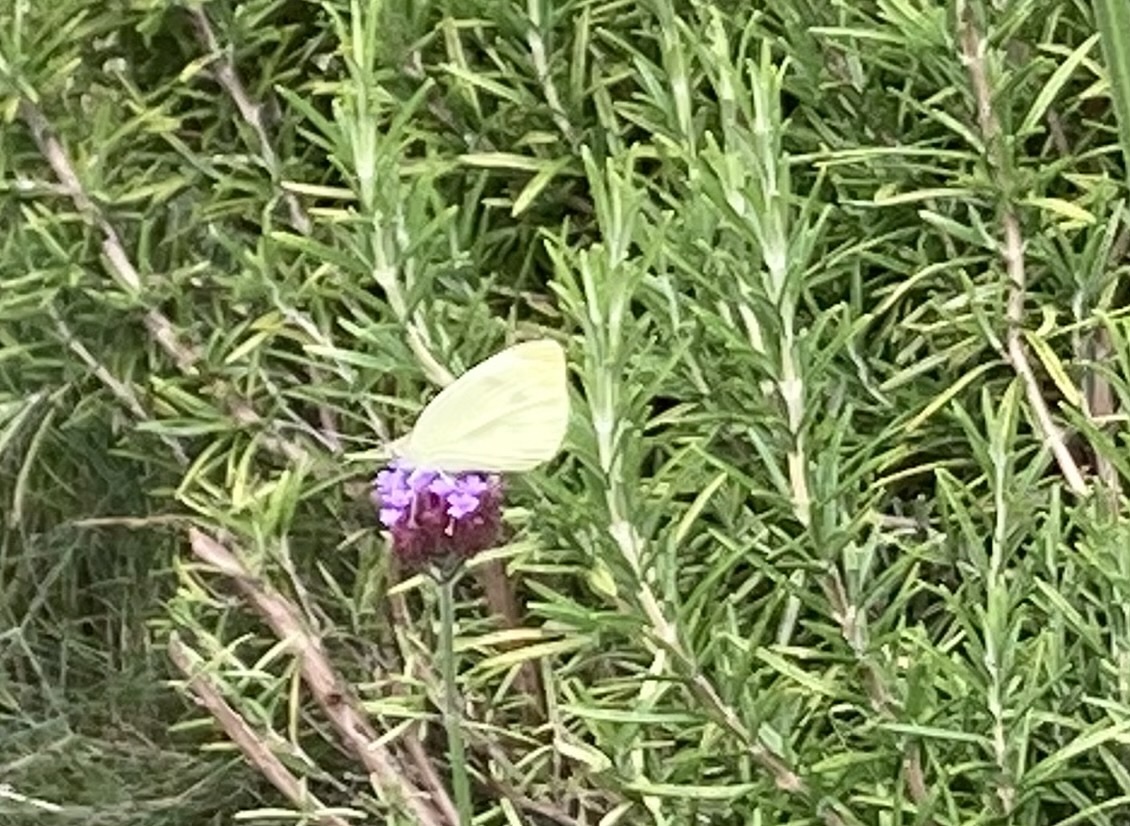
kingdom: Animalia
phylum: Arthropoda
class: Insecta
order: Lepidoptera
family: Pieridae
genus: Pieris
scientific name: Pieris rapae
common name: Small white
